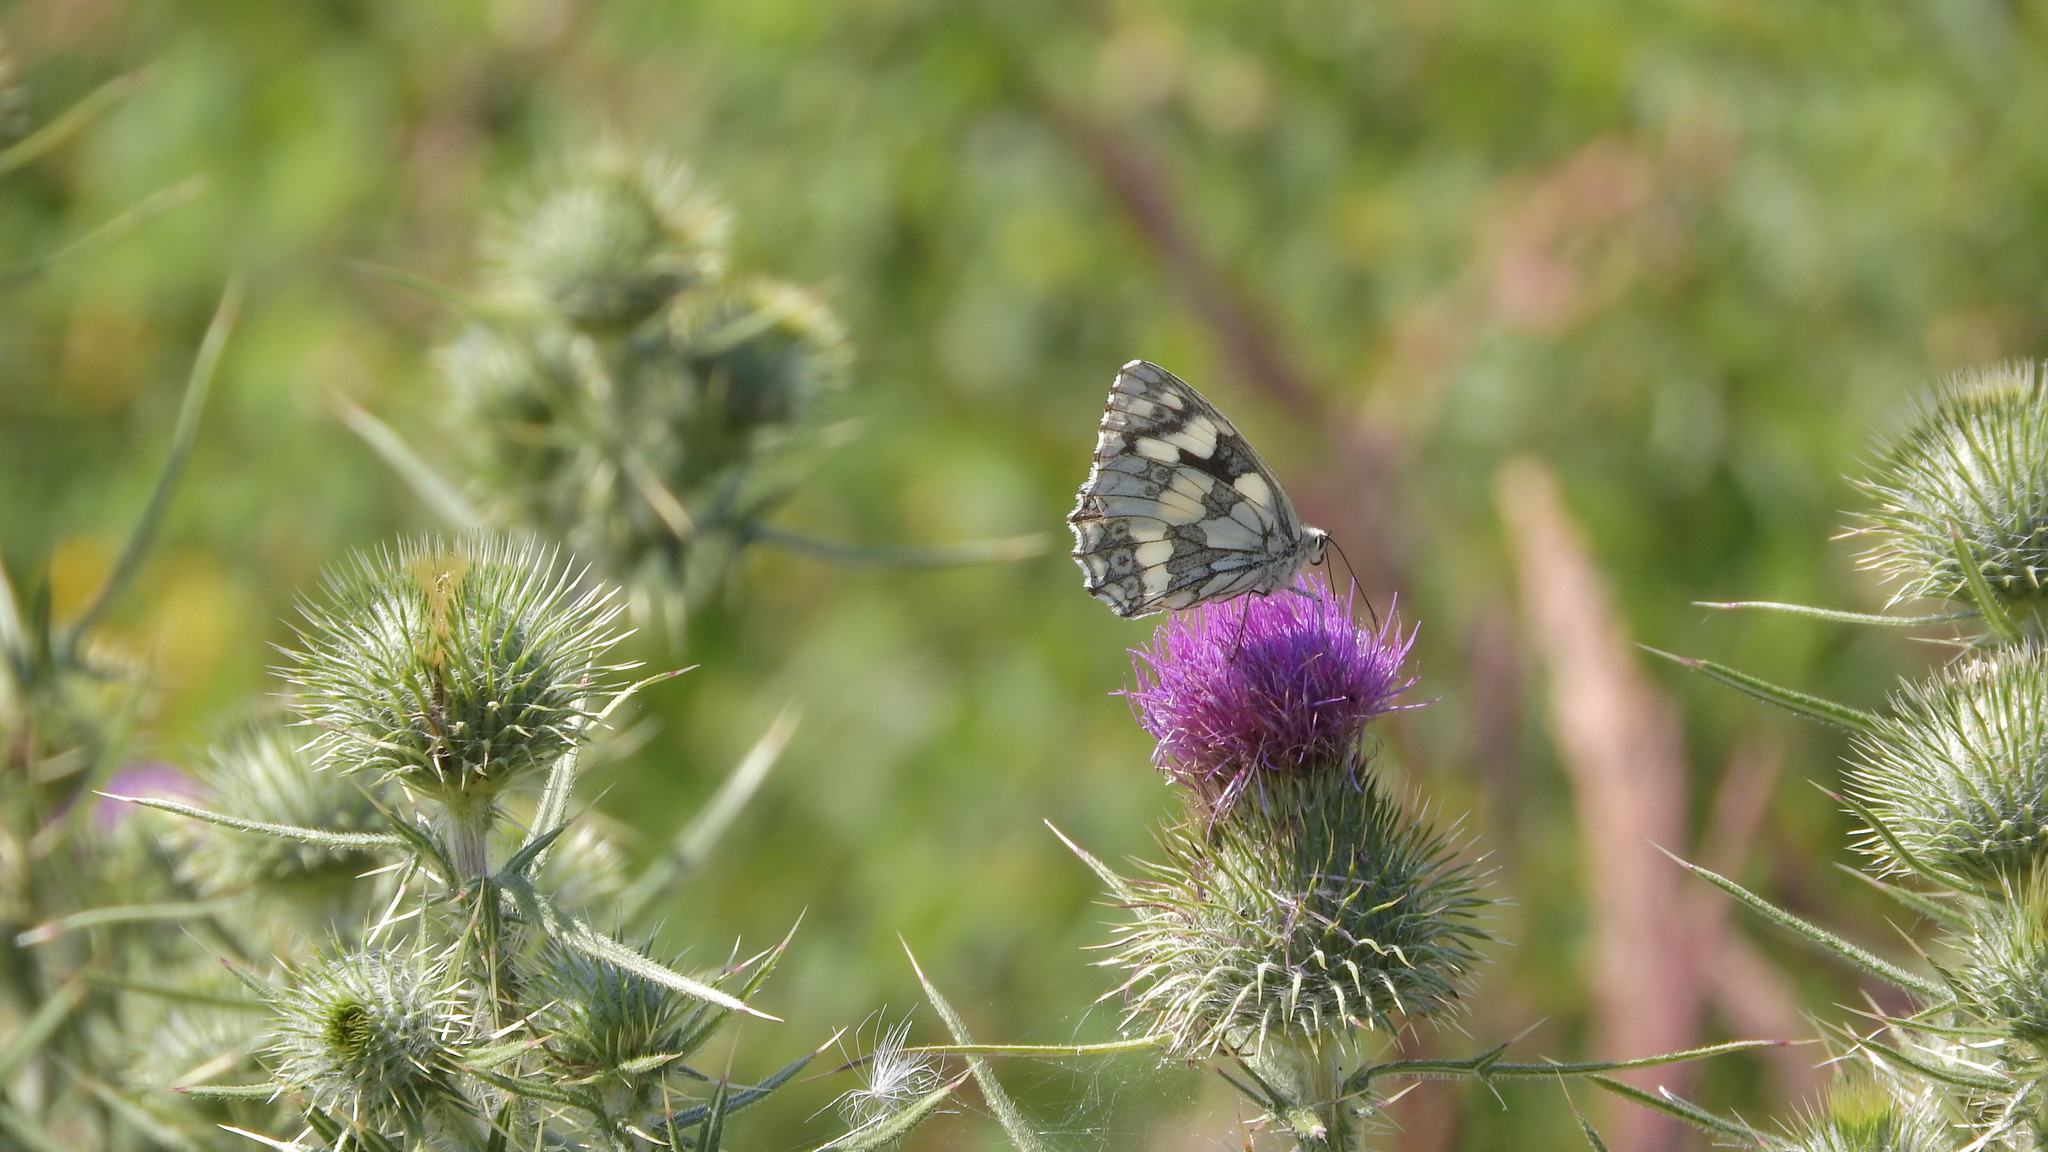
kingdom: Animalia
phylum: Arthropoda
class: Insecta
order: Lepidoptera
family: Nymphalidae
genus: Melanargia
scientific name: Melanargia galathea
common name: Marbled white
